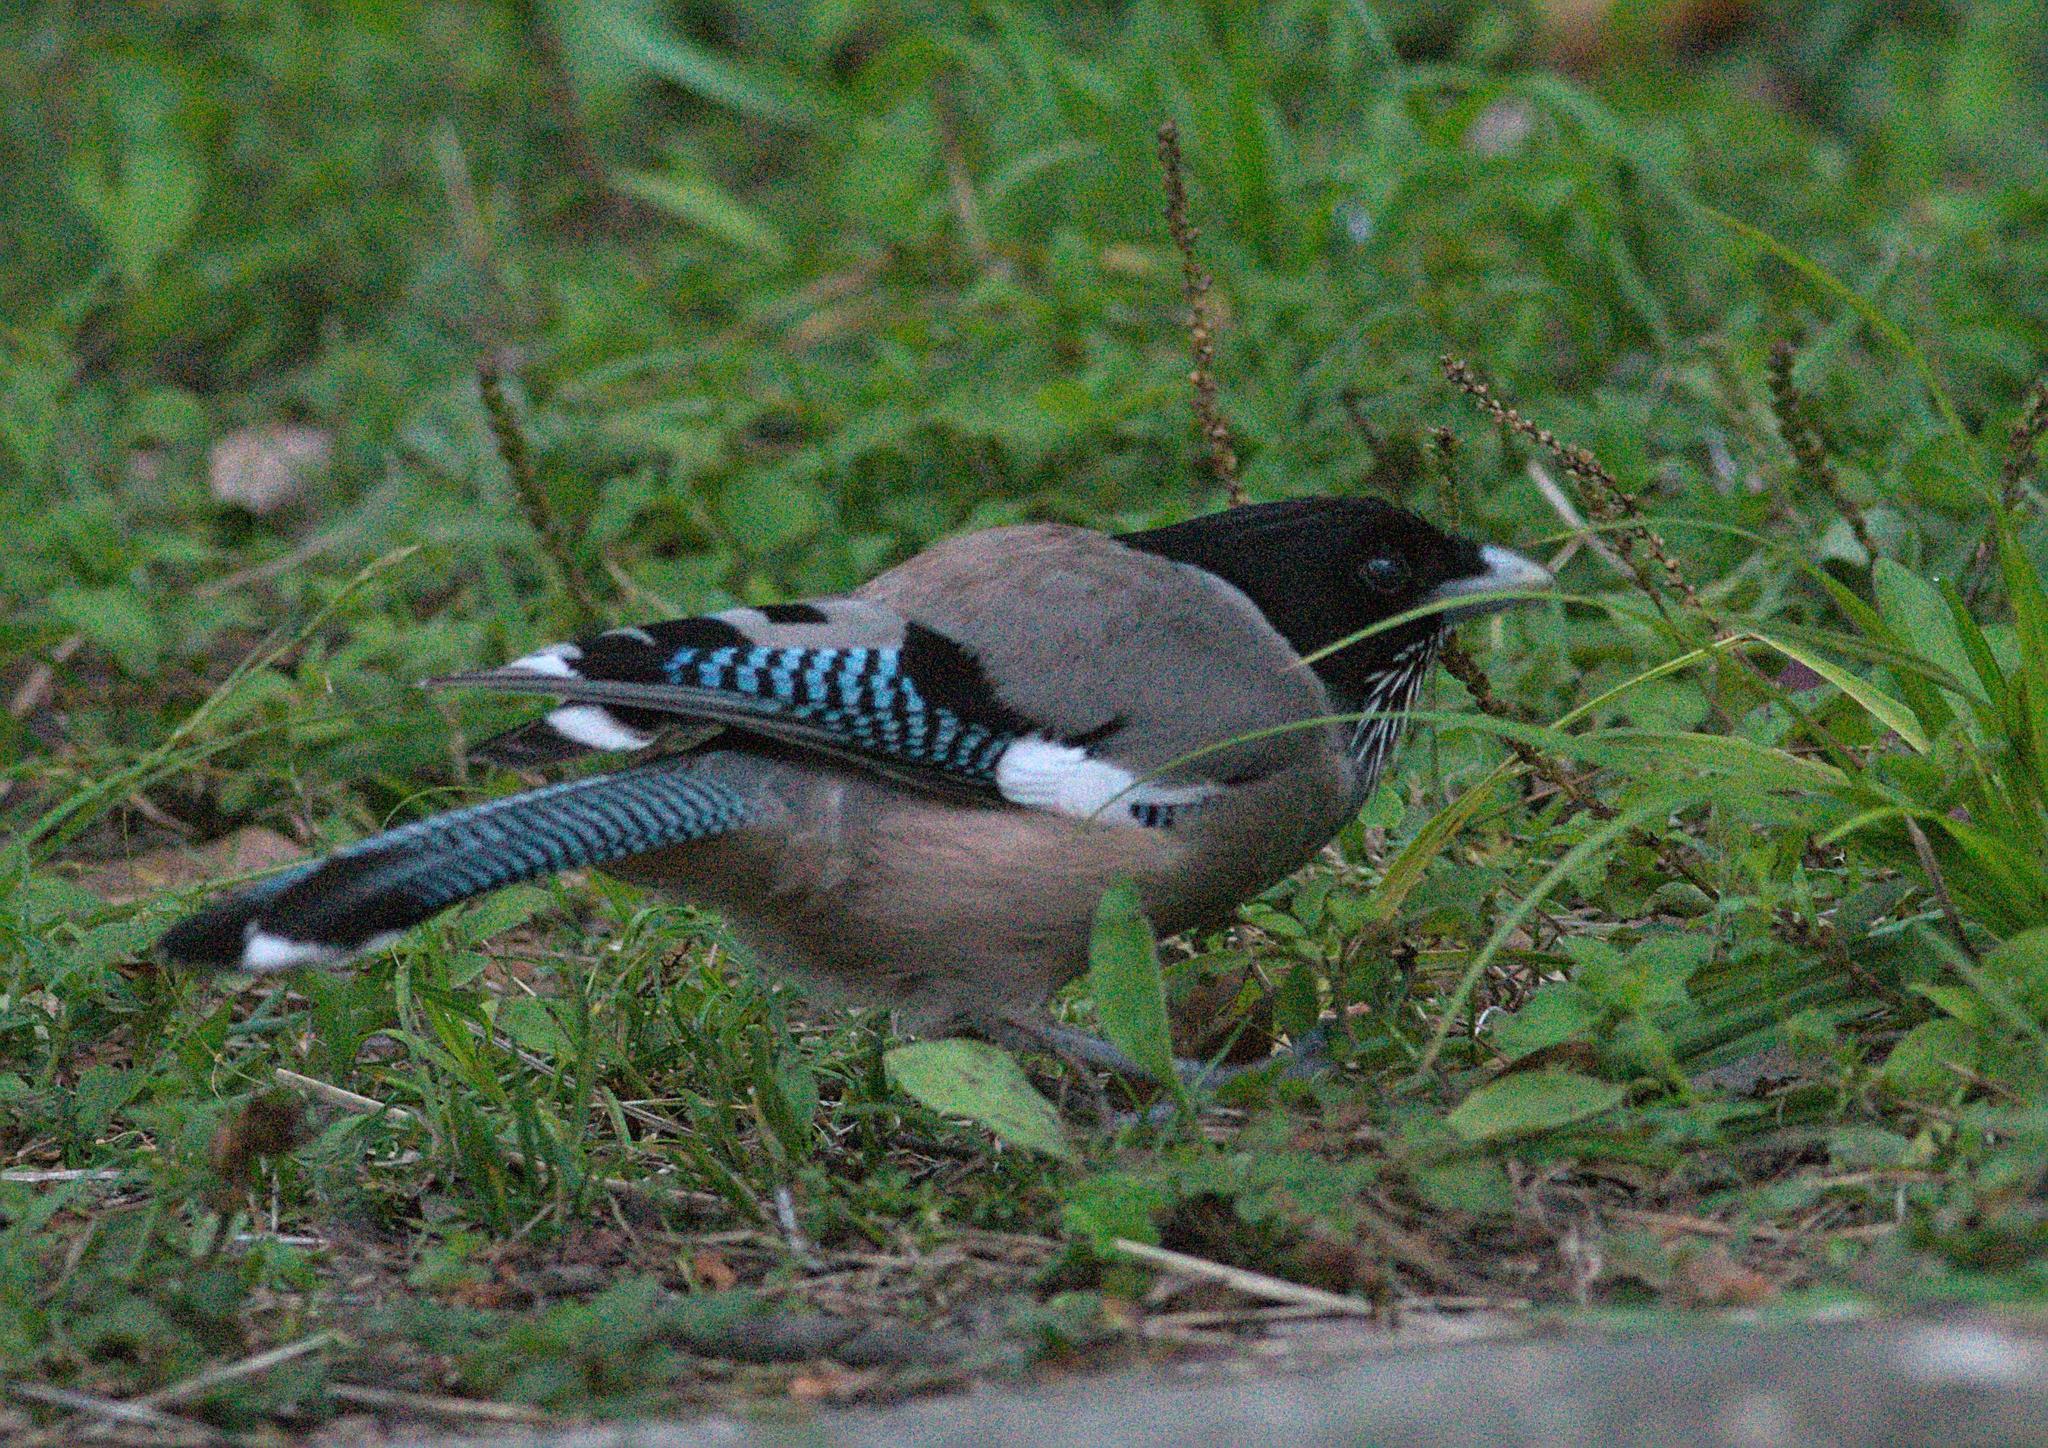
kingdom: Animalia
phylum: Chordata
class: Aves
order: Passeriformes
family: Corvidae
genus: Garrulus
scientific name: Garrulus lanceolatus
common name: Black-headed jay
